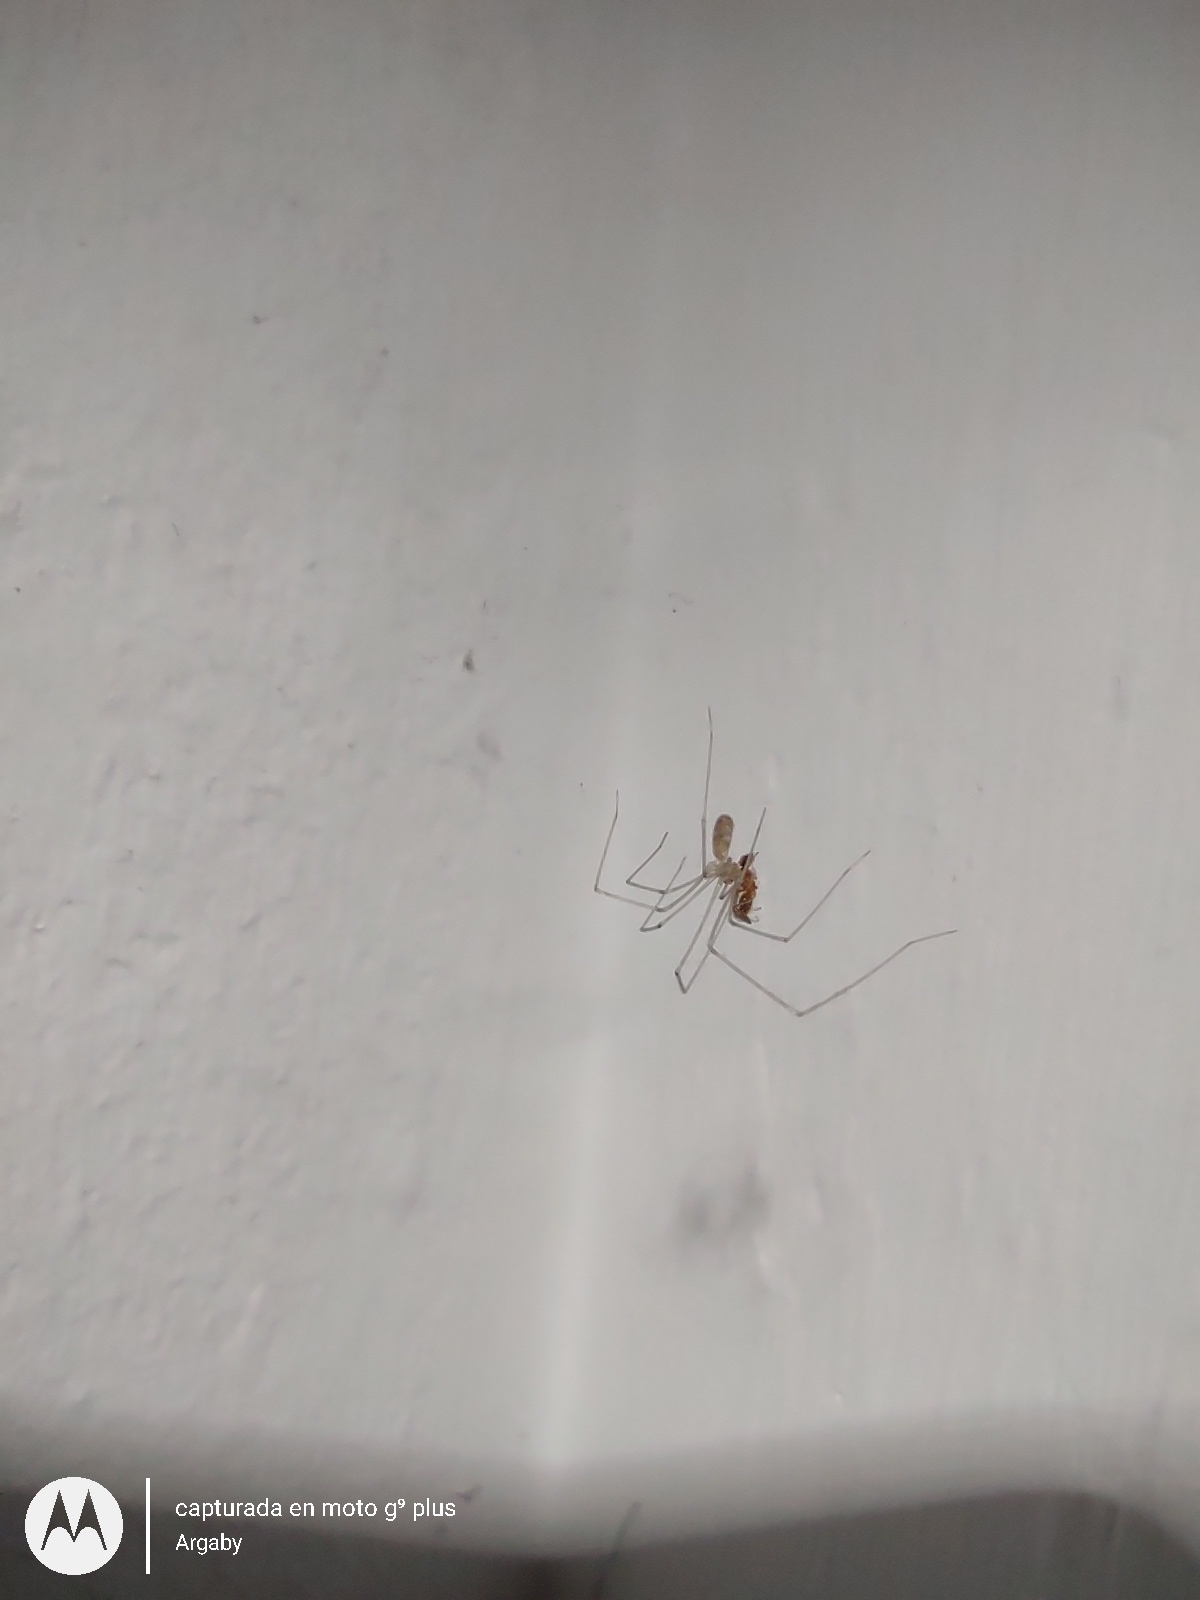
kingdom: Animalia
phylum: Arthropoda
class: Arachnida
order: Araneae
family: Pholcidae
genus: Pholcus
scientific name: Pholcus phalangioides
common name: Longbodied cellar spider
